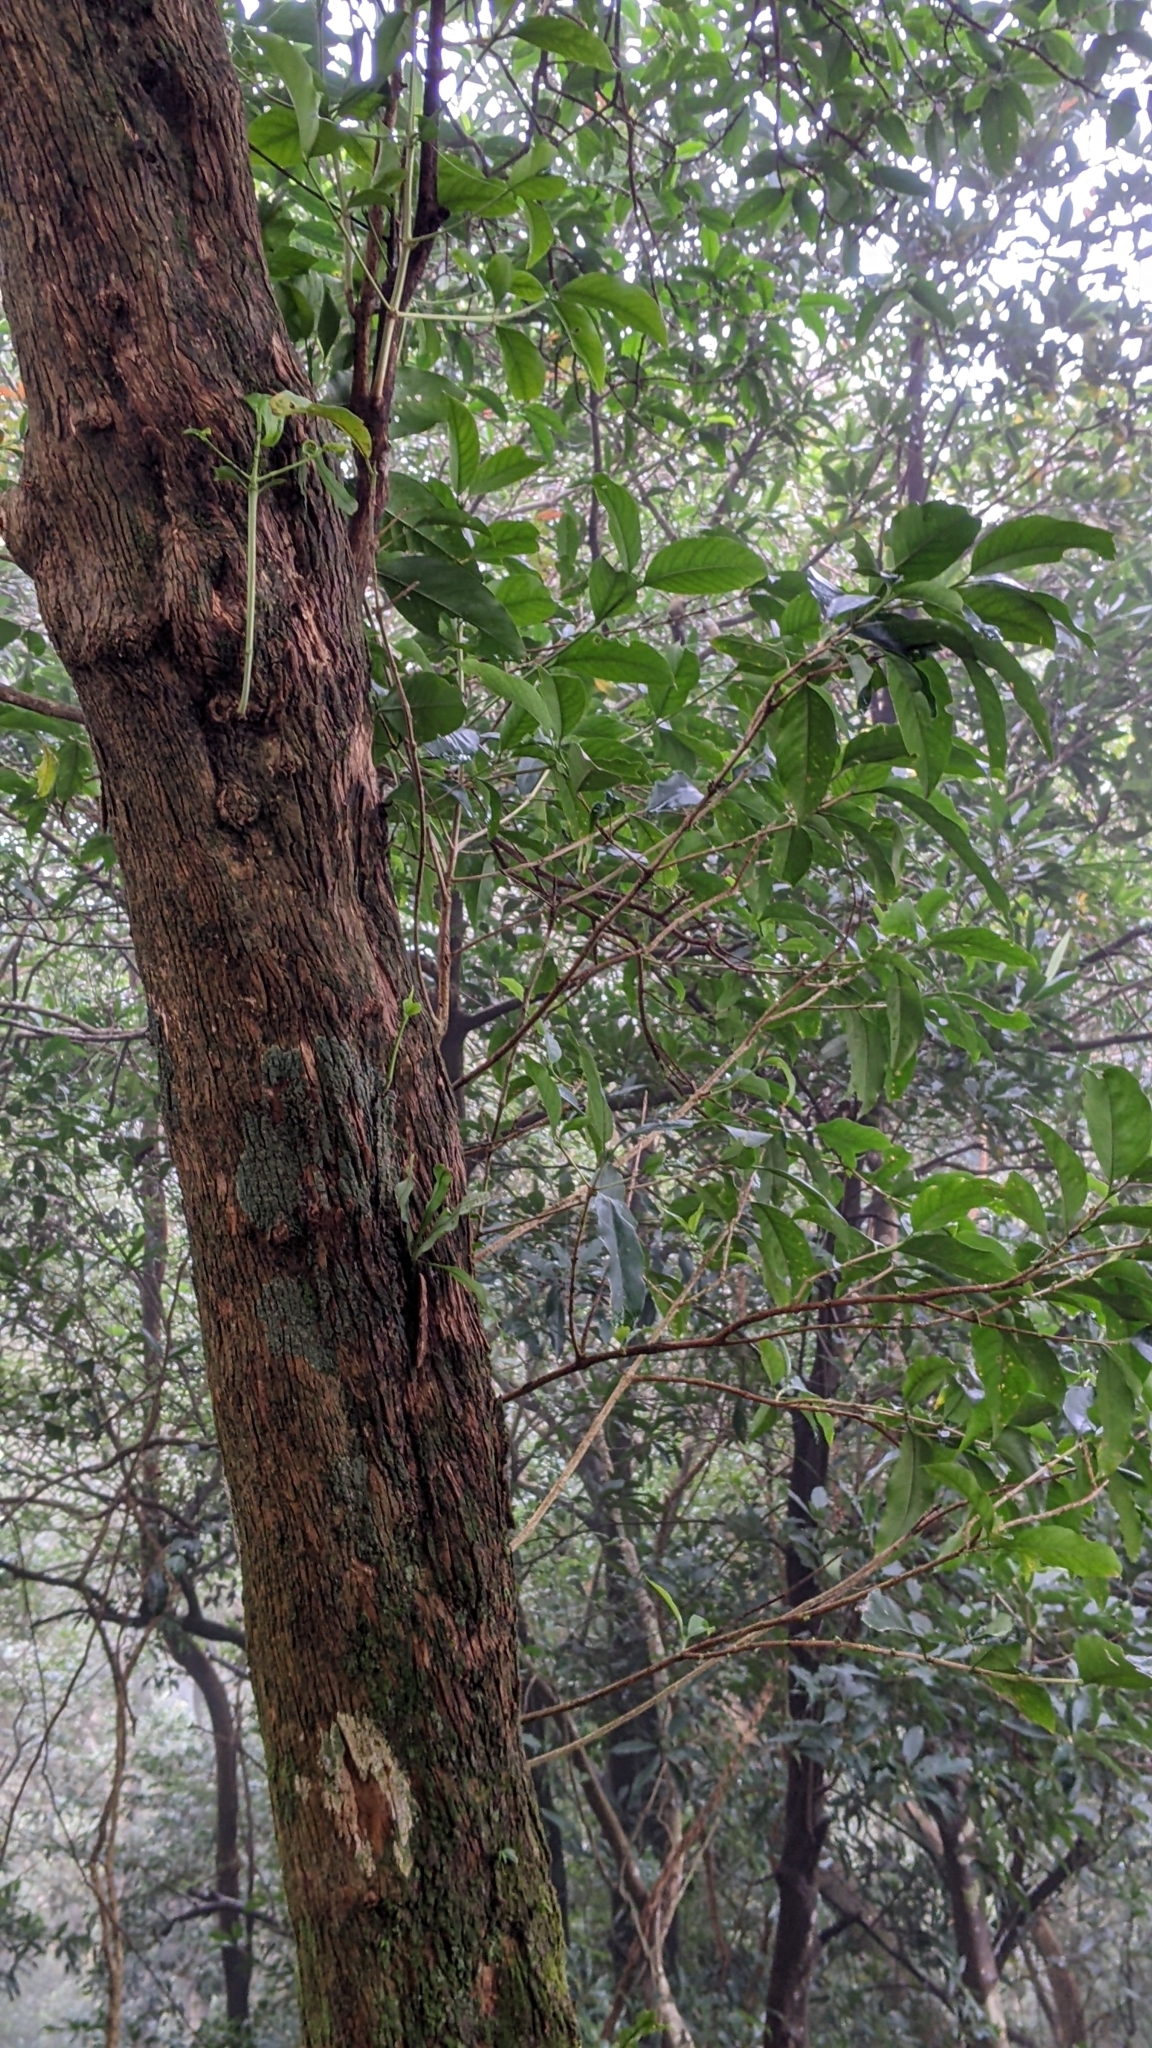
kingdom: Plantae
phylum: Tracheophyta
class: Magnoliopsida
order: Gentianales
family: Rubiaceae
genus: Diplospora
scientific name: Diplospora dubia
